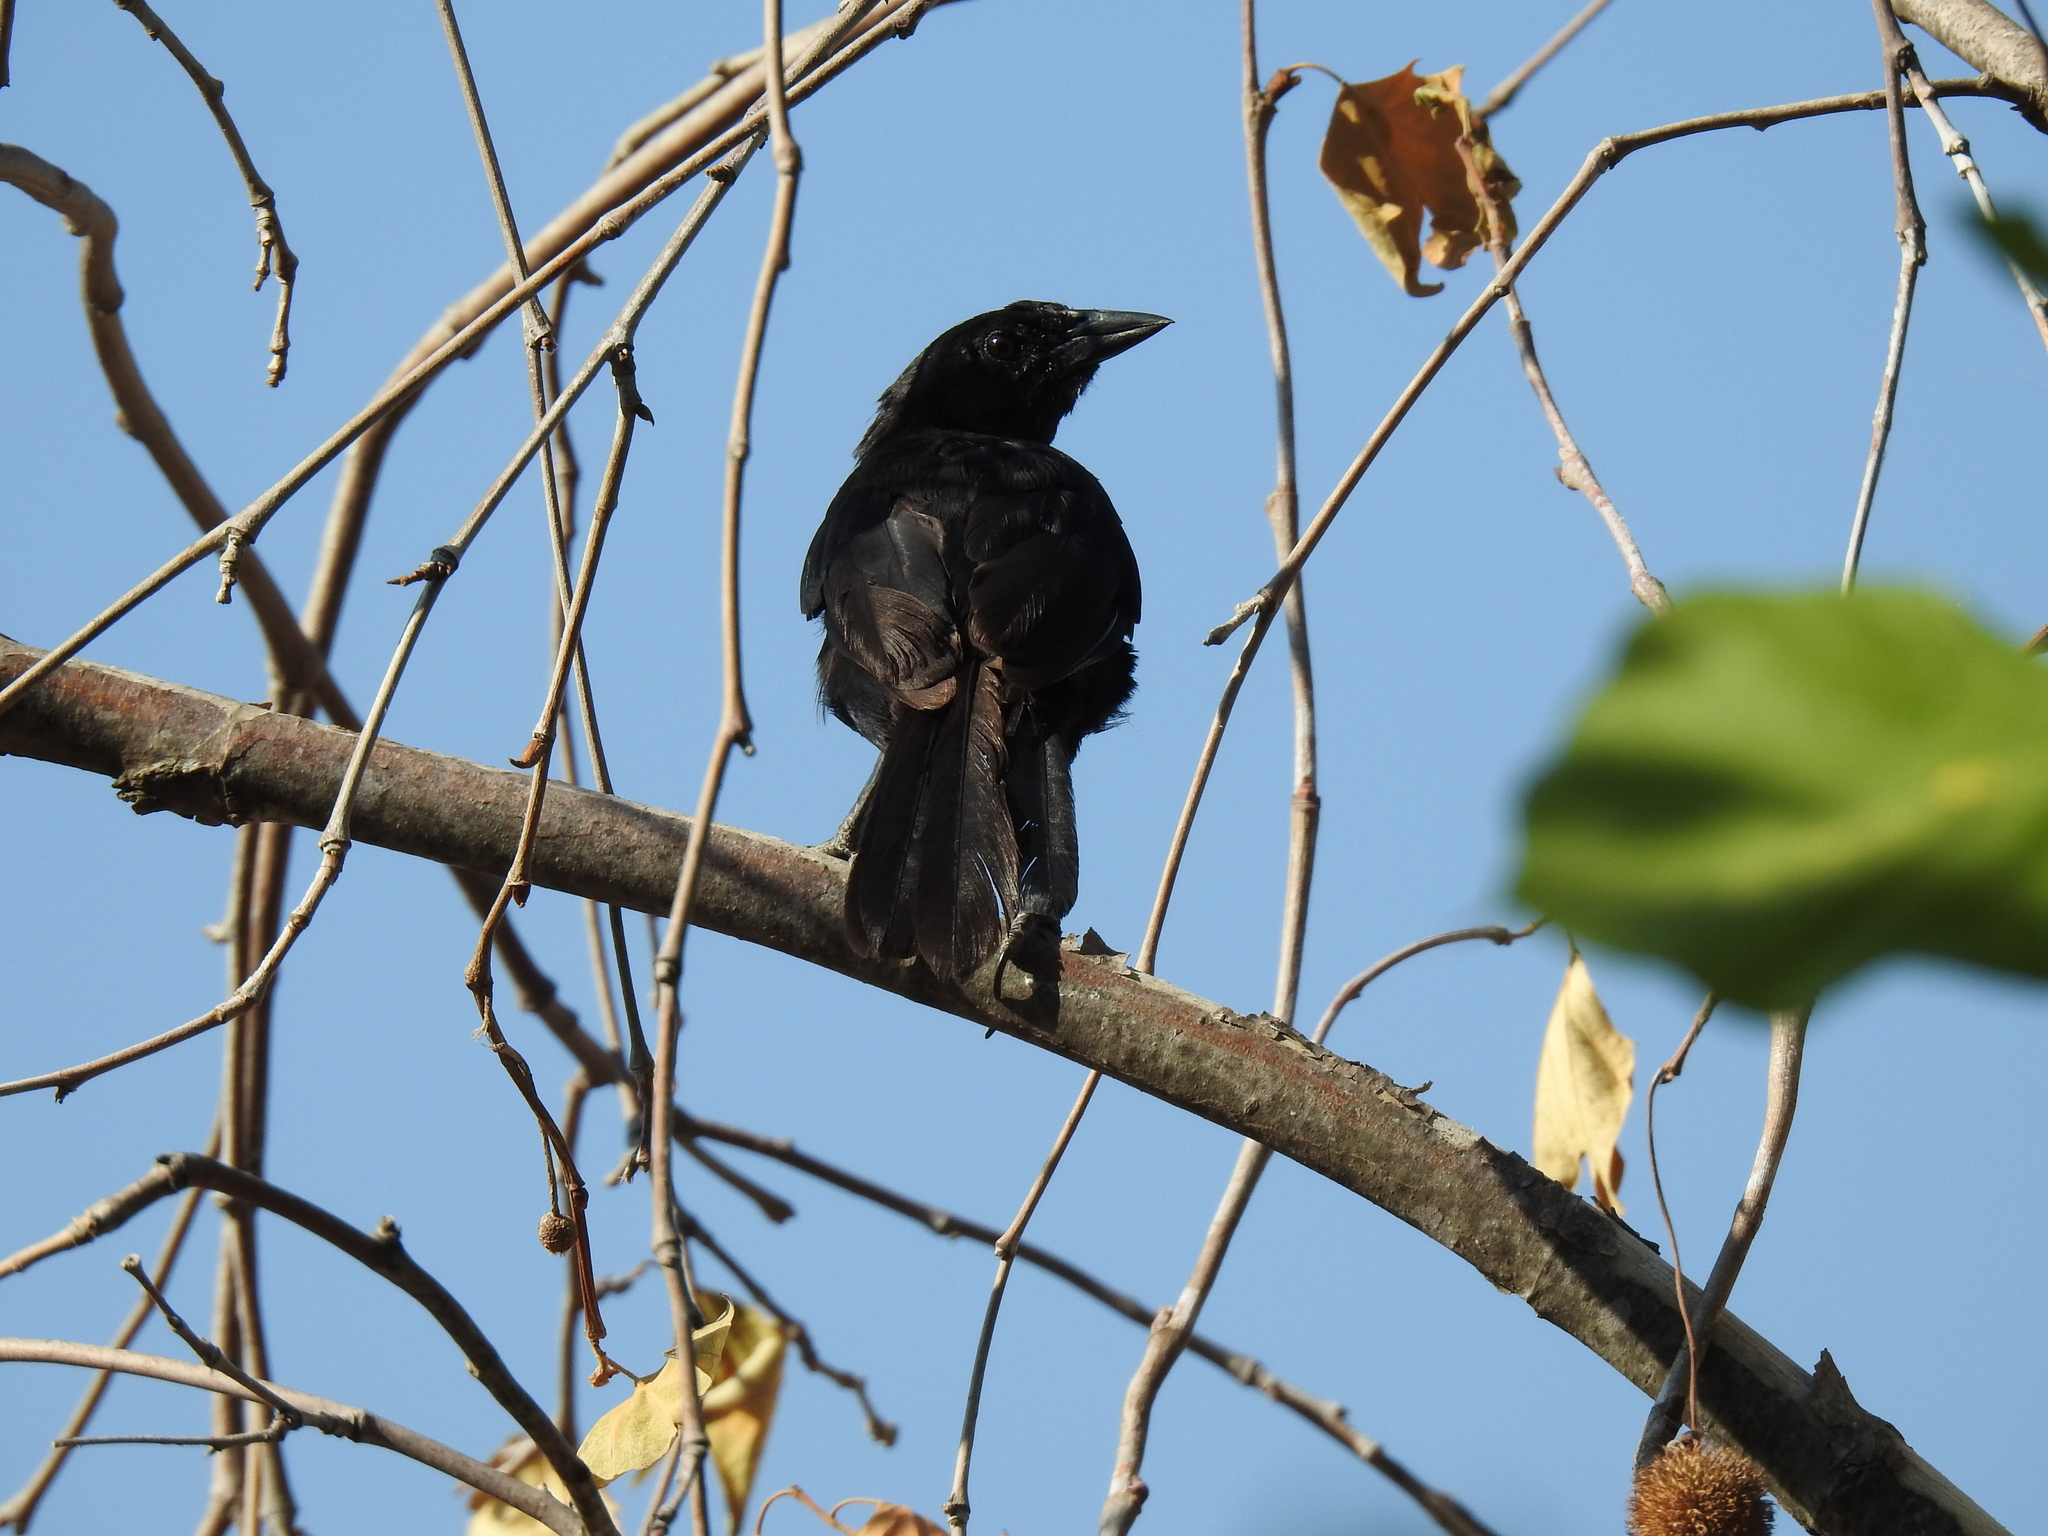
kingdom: Animalia
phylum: Chordata
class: Aves
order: Passeriformes
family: Icteridae
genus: Dives
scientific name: Dives dives
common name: Melodious blackbird
